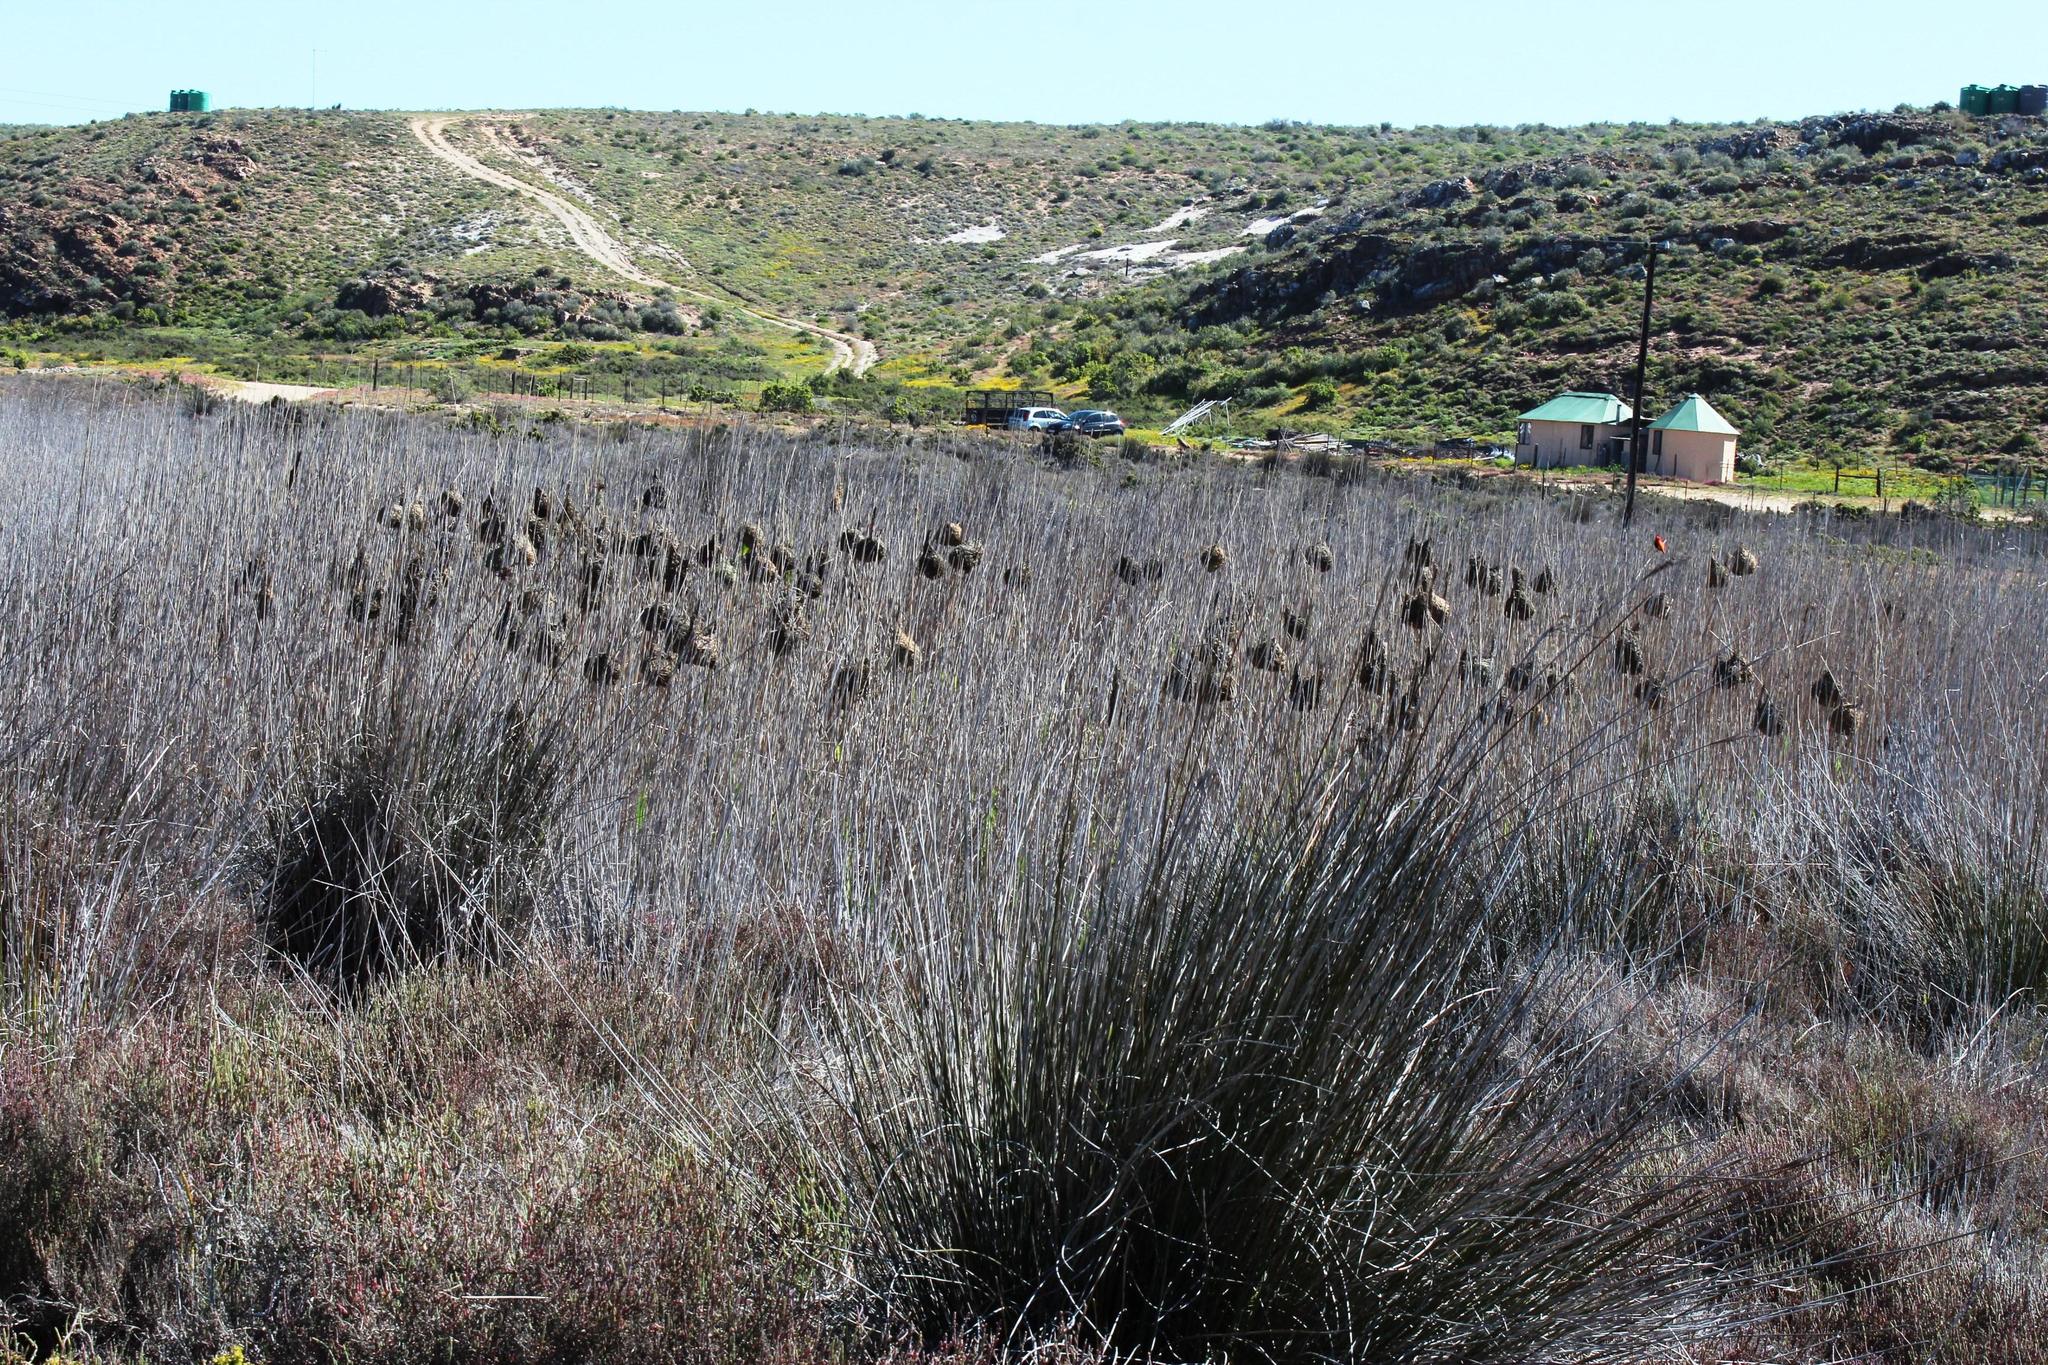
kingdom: Plantae
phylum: Tracheophyta
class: Liliopsida
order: Poales
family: Poaceae
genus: Phragmites
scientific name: Phragmites australis
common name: Common reed
